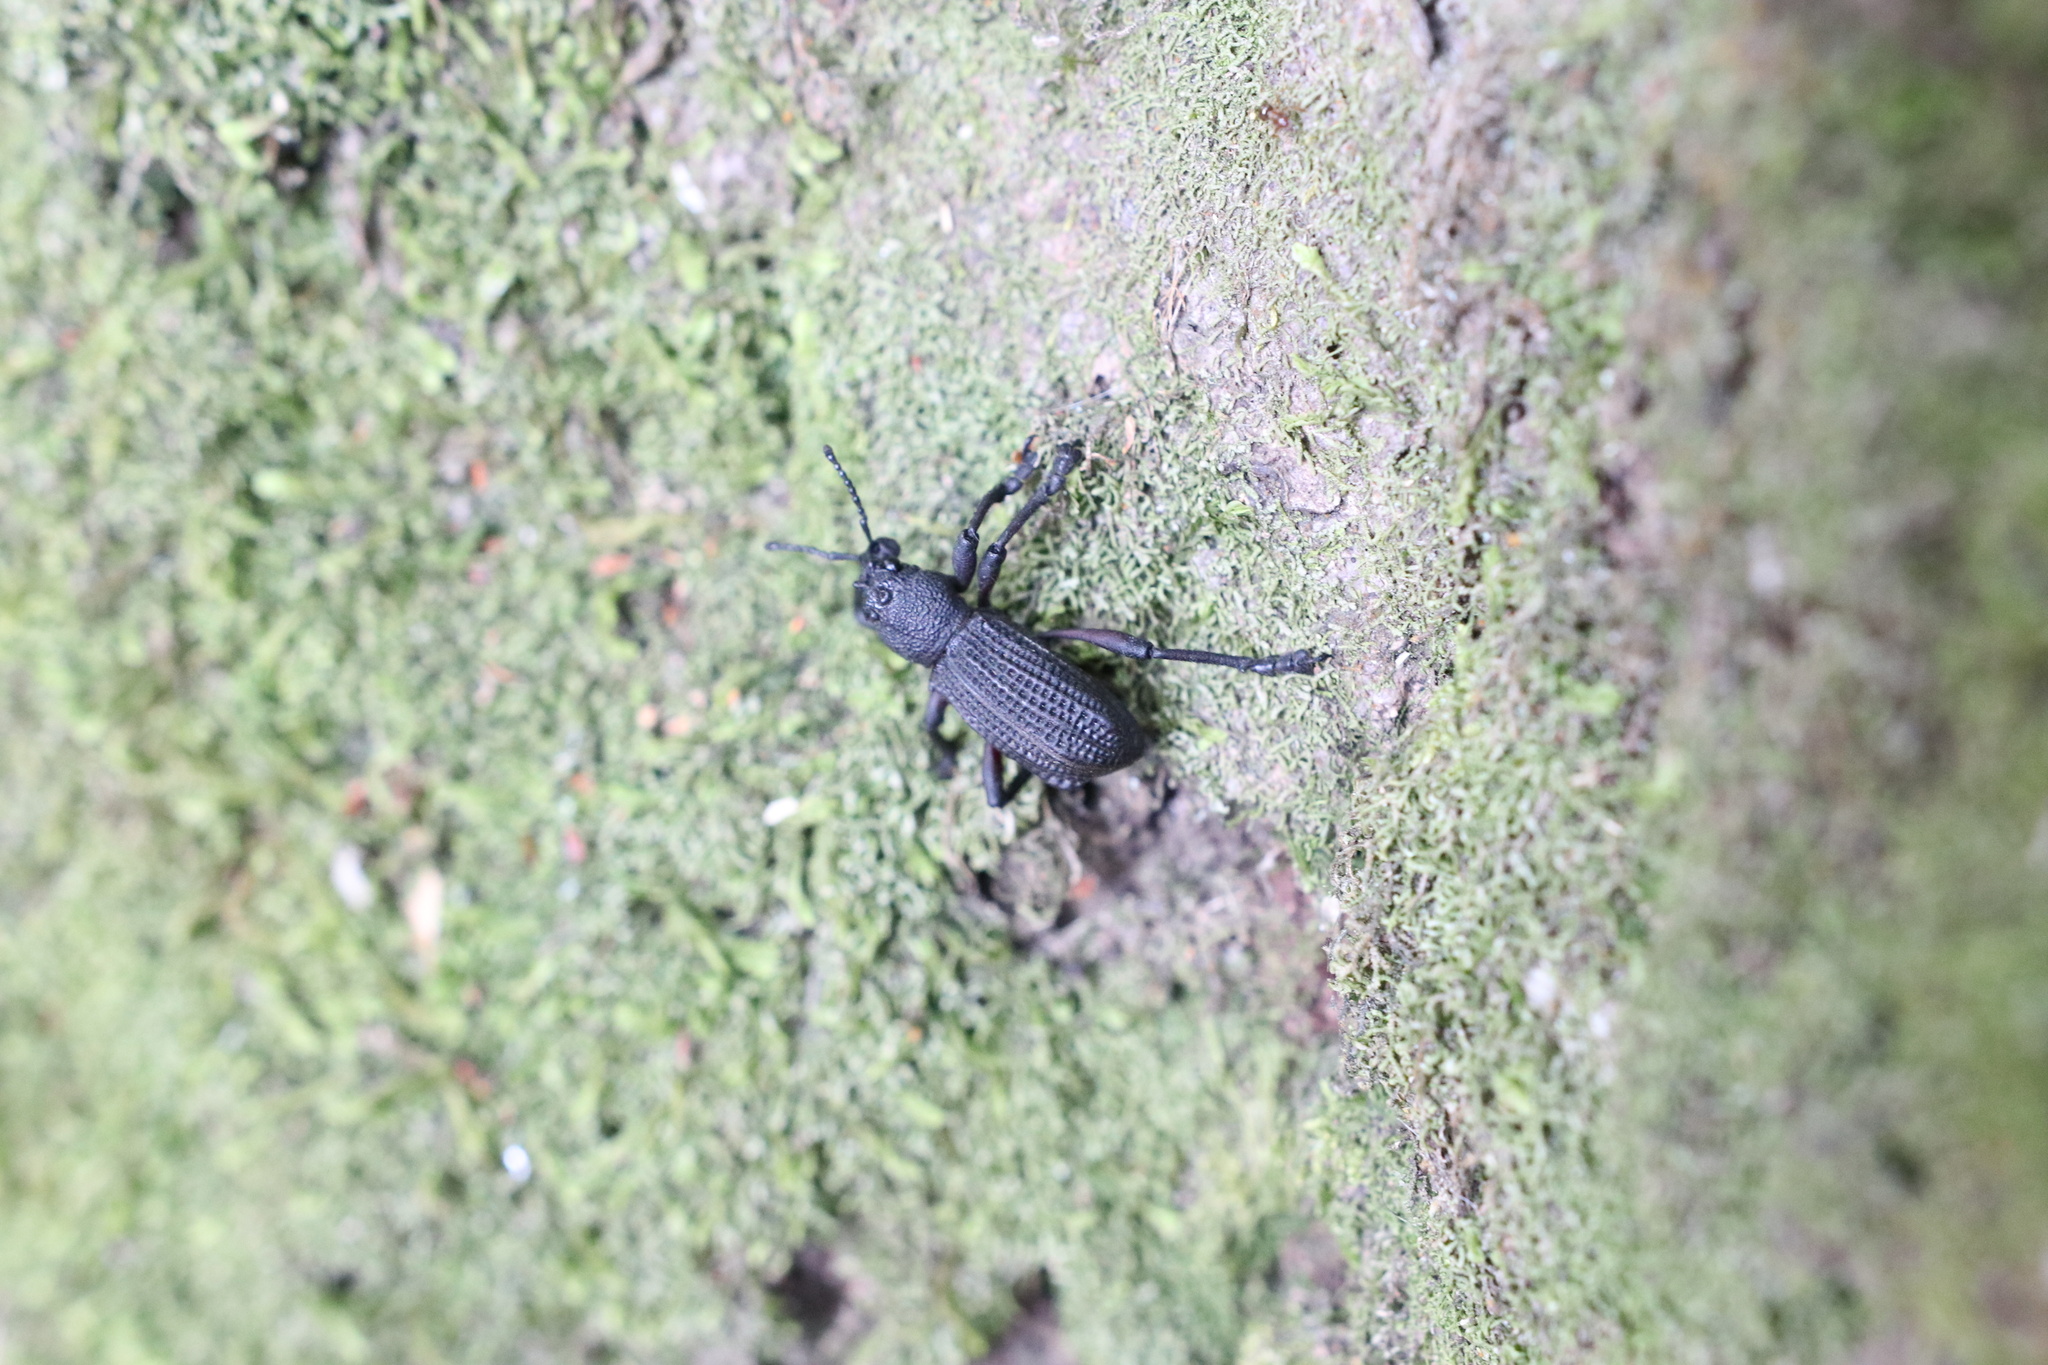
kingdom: Animalia
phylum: Arthropoda
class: Insecta
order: Coleoptera
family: Curculionidae
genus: Aegorhinus
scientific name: Aegorhinus
